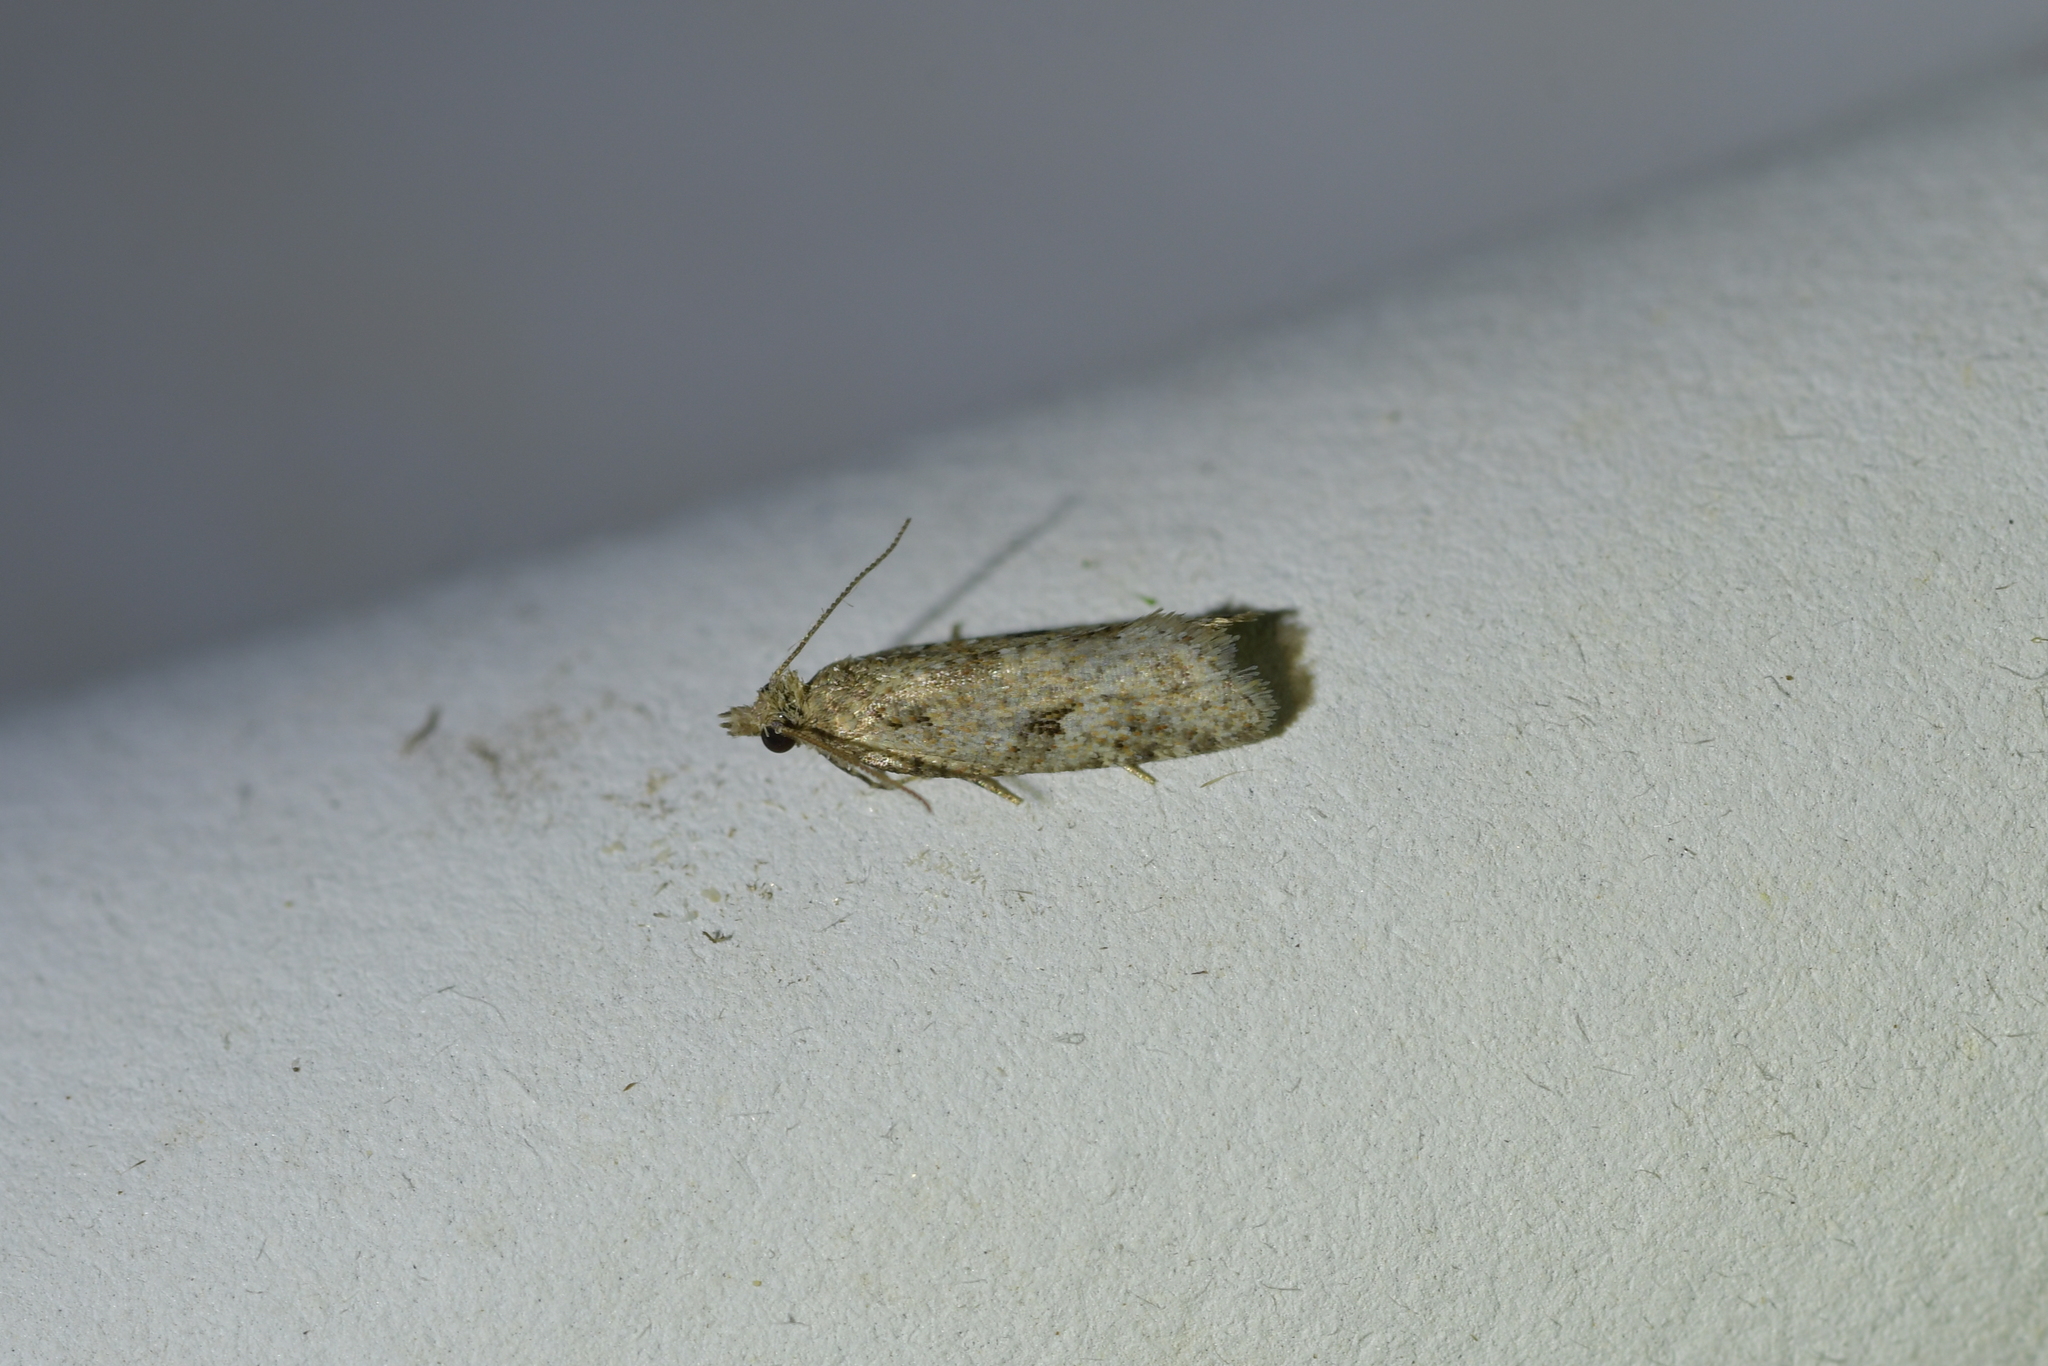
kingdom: Animalia
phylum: Arthropoda
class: Insecta
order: Lepidoptera
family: Tortricidae
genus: Capua
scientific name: Capua semiferana
